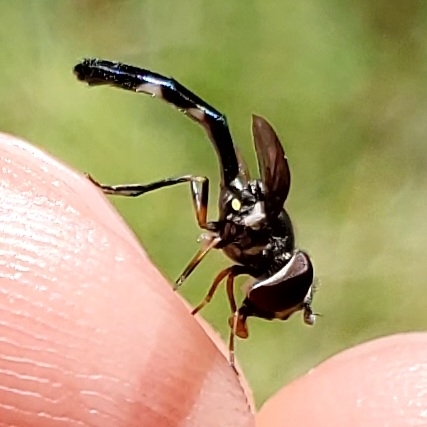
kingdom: Animalia
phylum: Arthropoda
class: Insecta
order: Diptera
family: Syrphidae
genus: Ocyptamus
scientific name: Ocyptamus costatus
